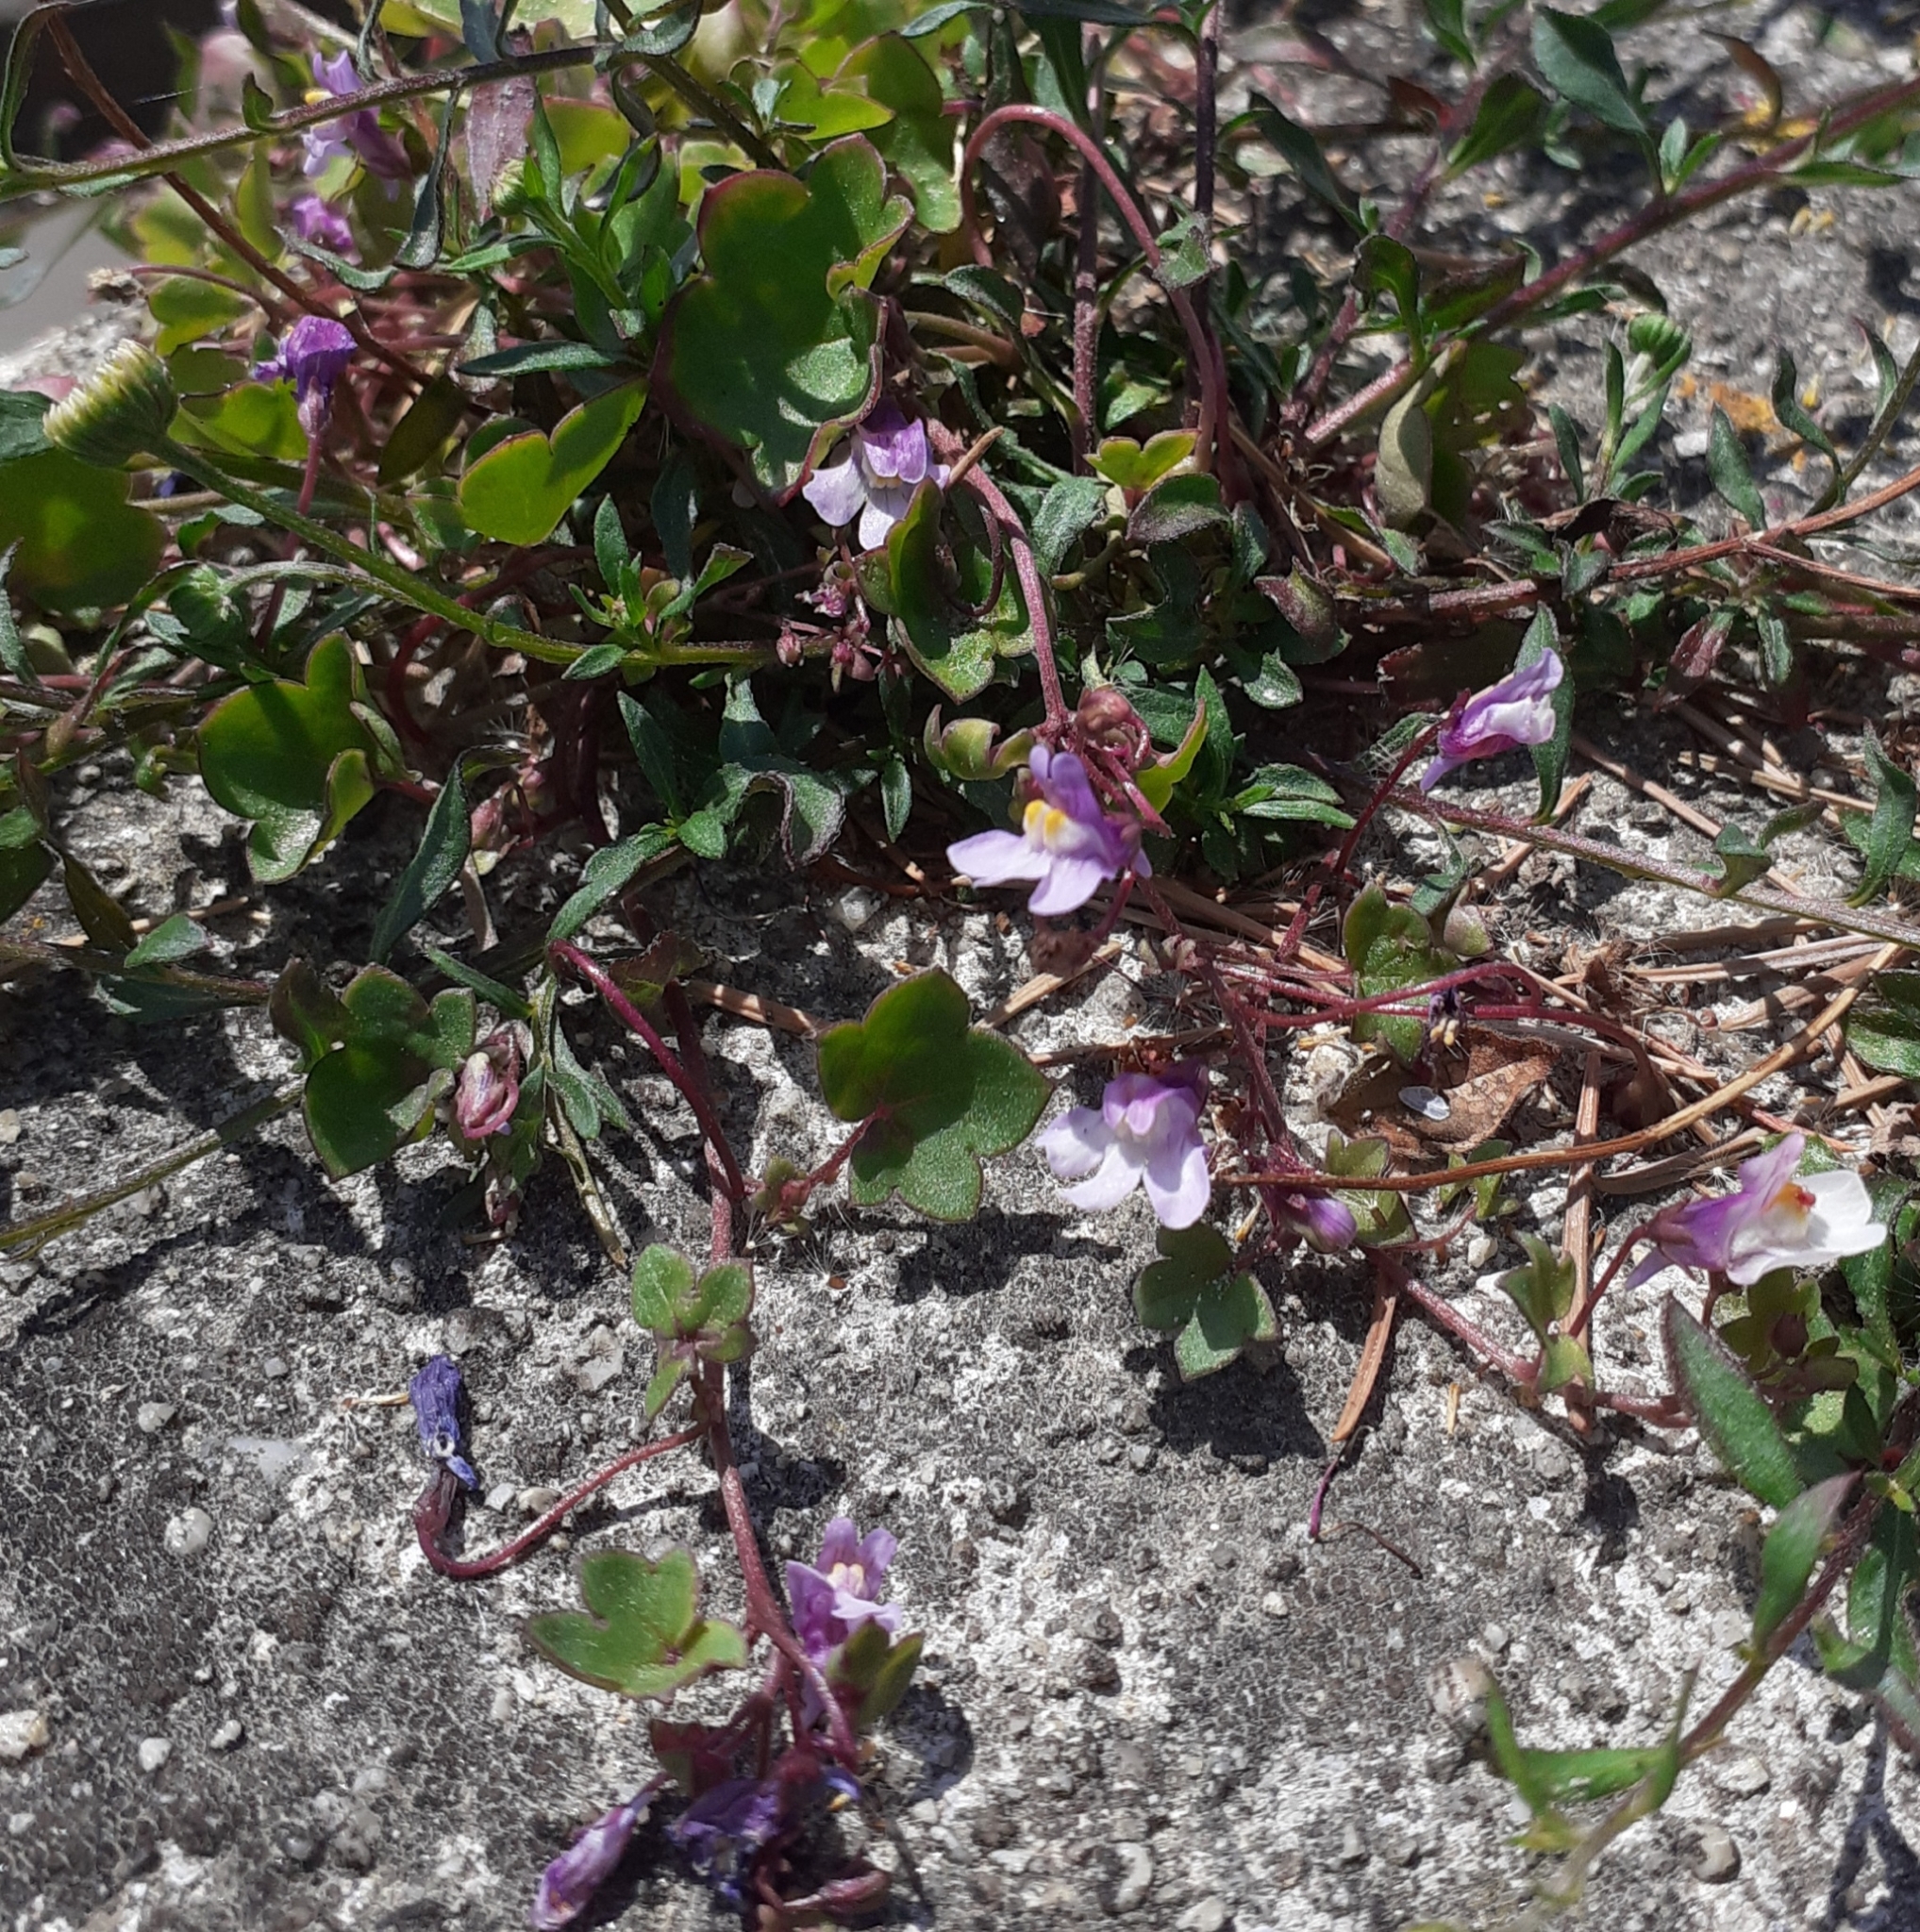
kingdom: Plantae
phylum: Tracheophyta
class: Magnoliopsida
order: Lamiales
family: Plantaginaceae
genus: Cymbalaria
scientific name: Cymbalaria muralis
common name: Ivy-leaved toadflax
